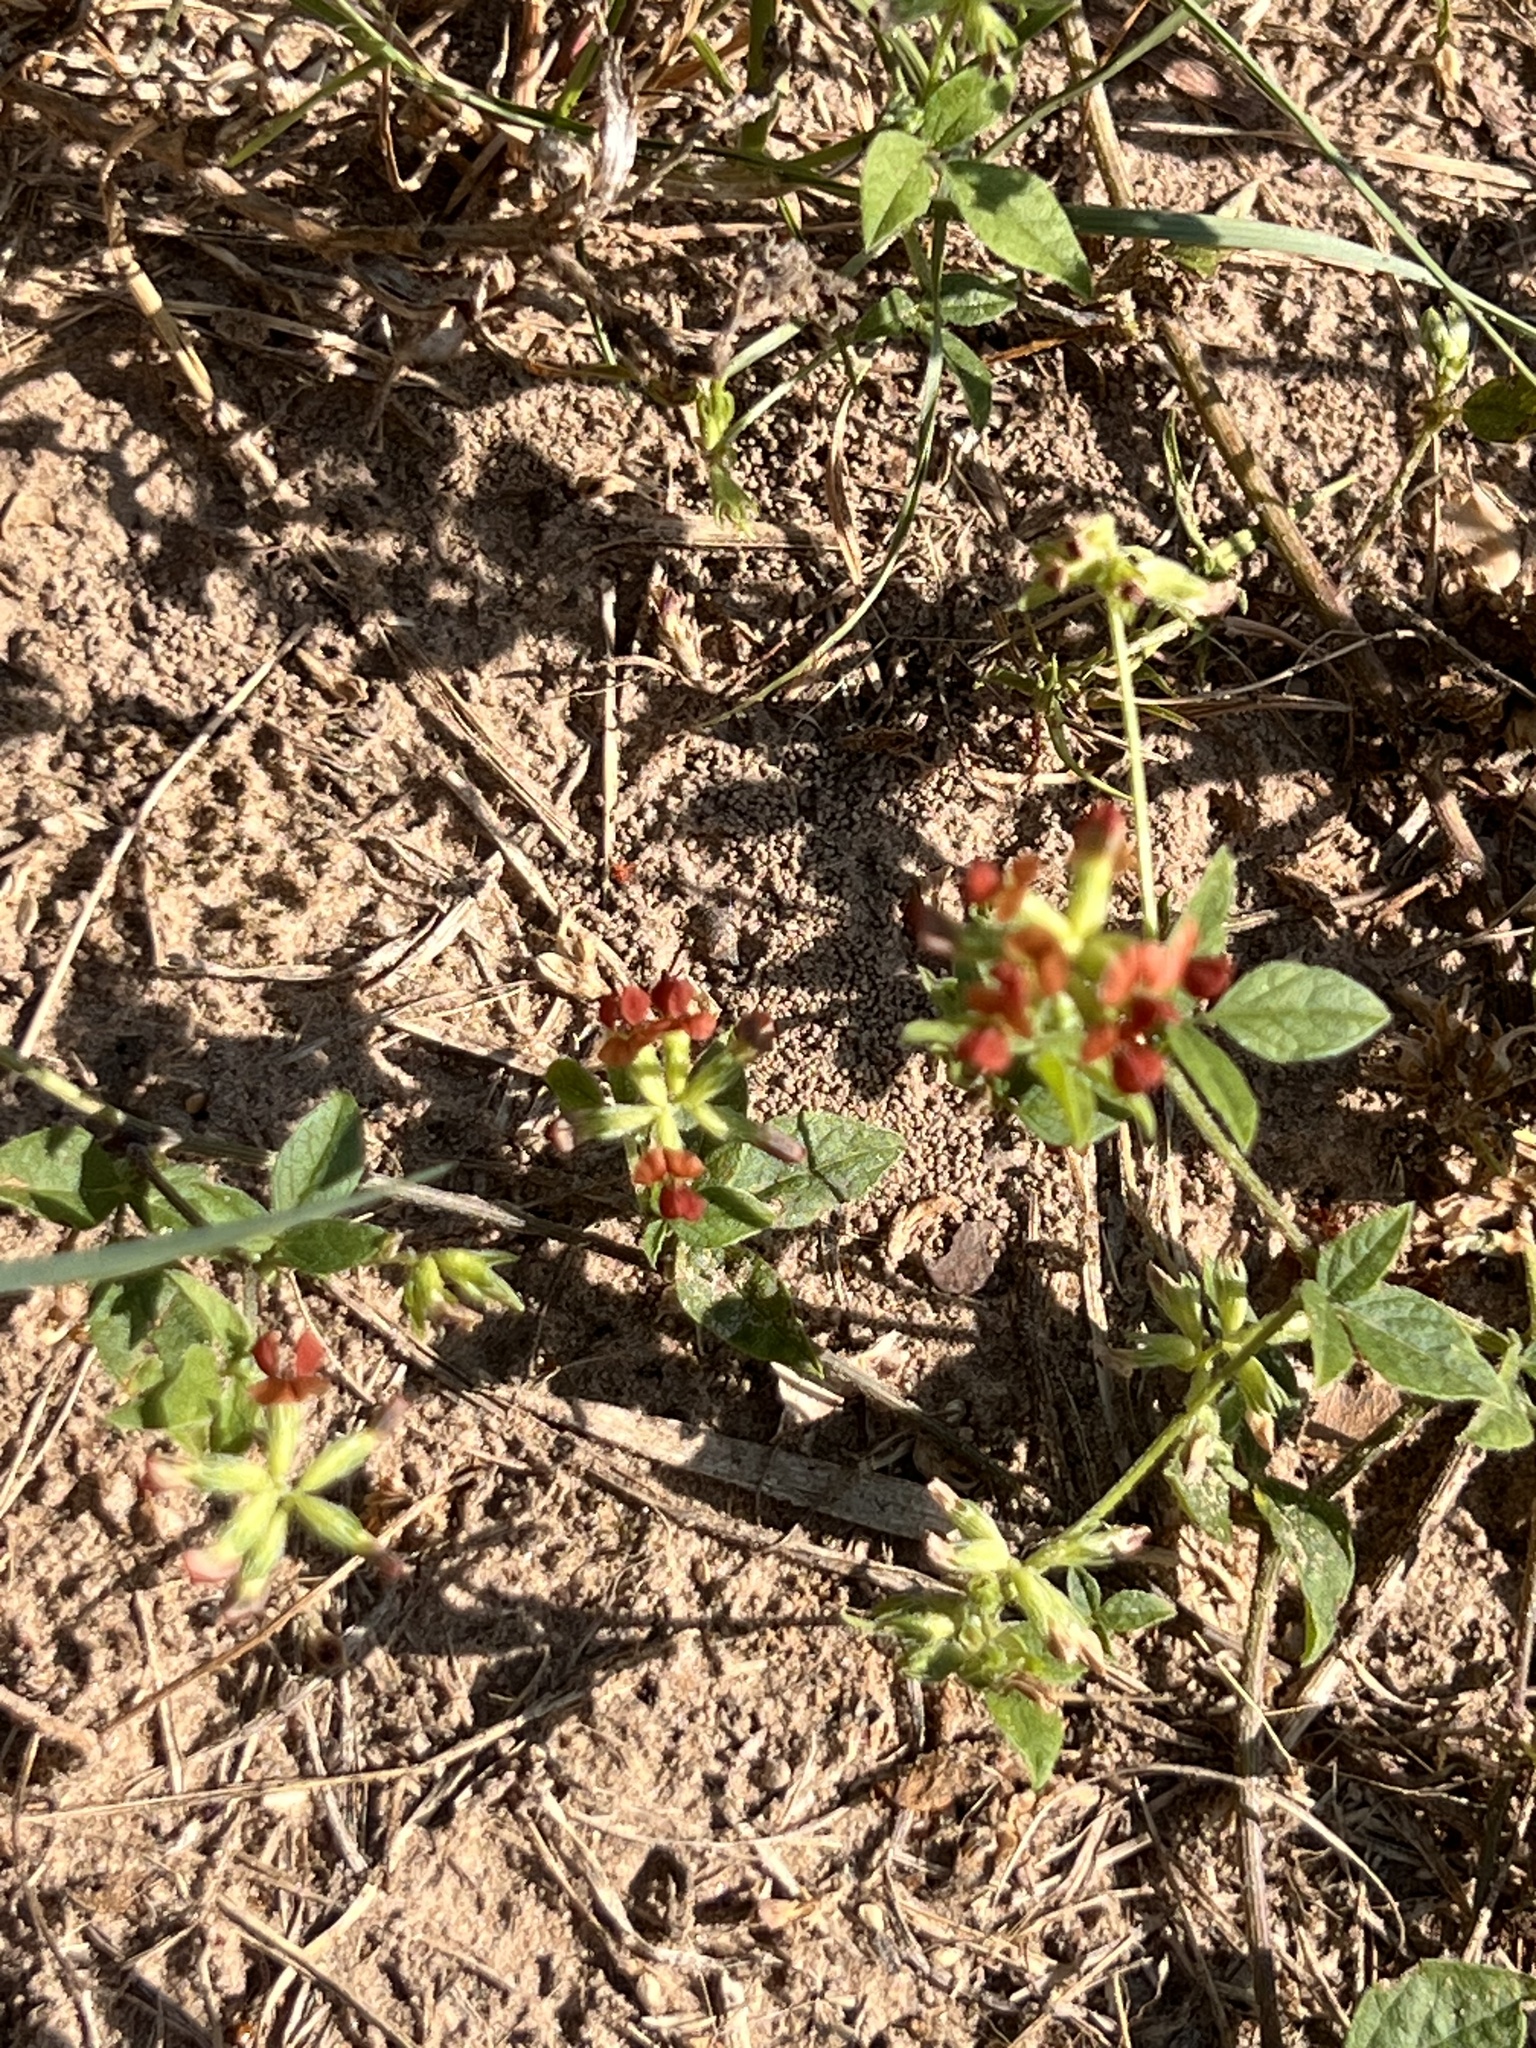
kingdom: Plantae
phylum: Tracheophyta
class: Magnoliopsida
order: Fabales
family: Fabaceae
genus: Pediomelum
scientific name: Pediomelum rhombifolium
